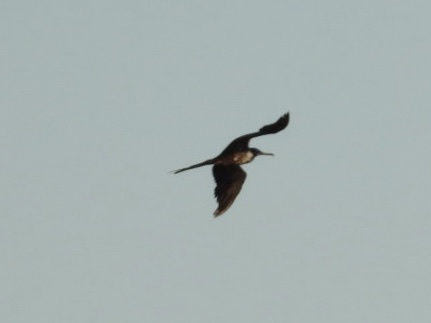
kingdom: Animalia
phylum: Chordata
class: Aves
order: Suliformes
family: Fregatidae
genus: Fregata
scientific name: Fregata magnificens
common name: Magnificent frigatebird
